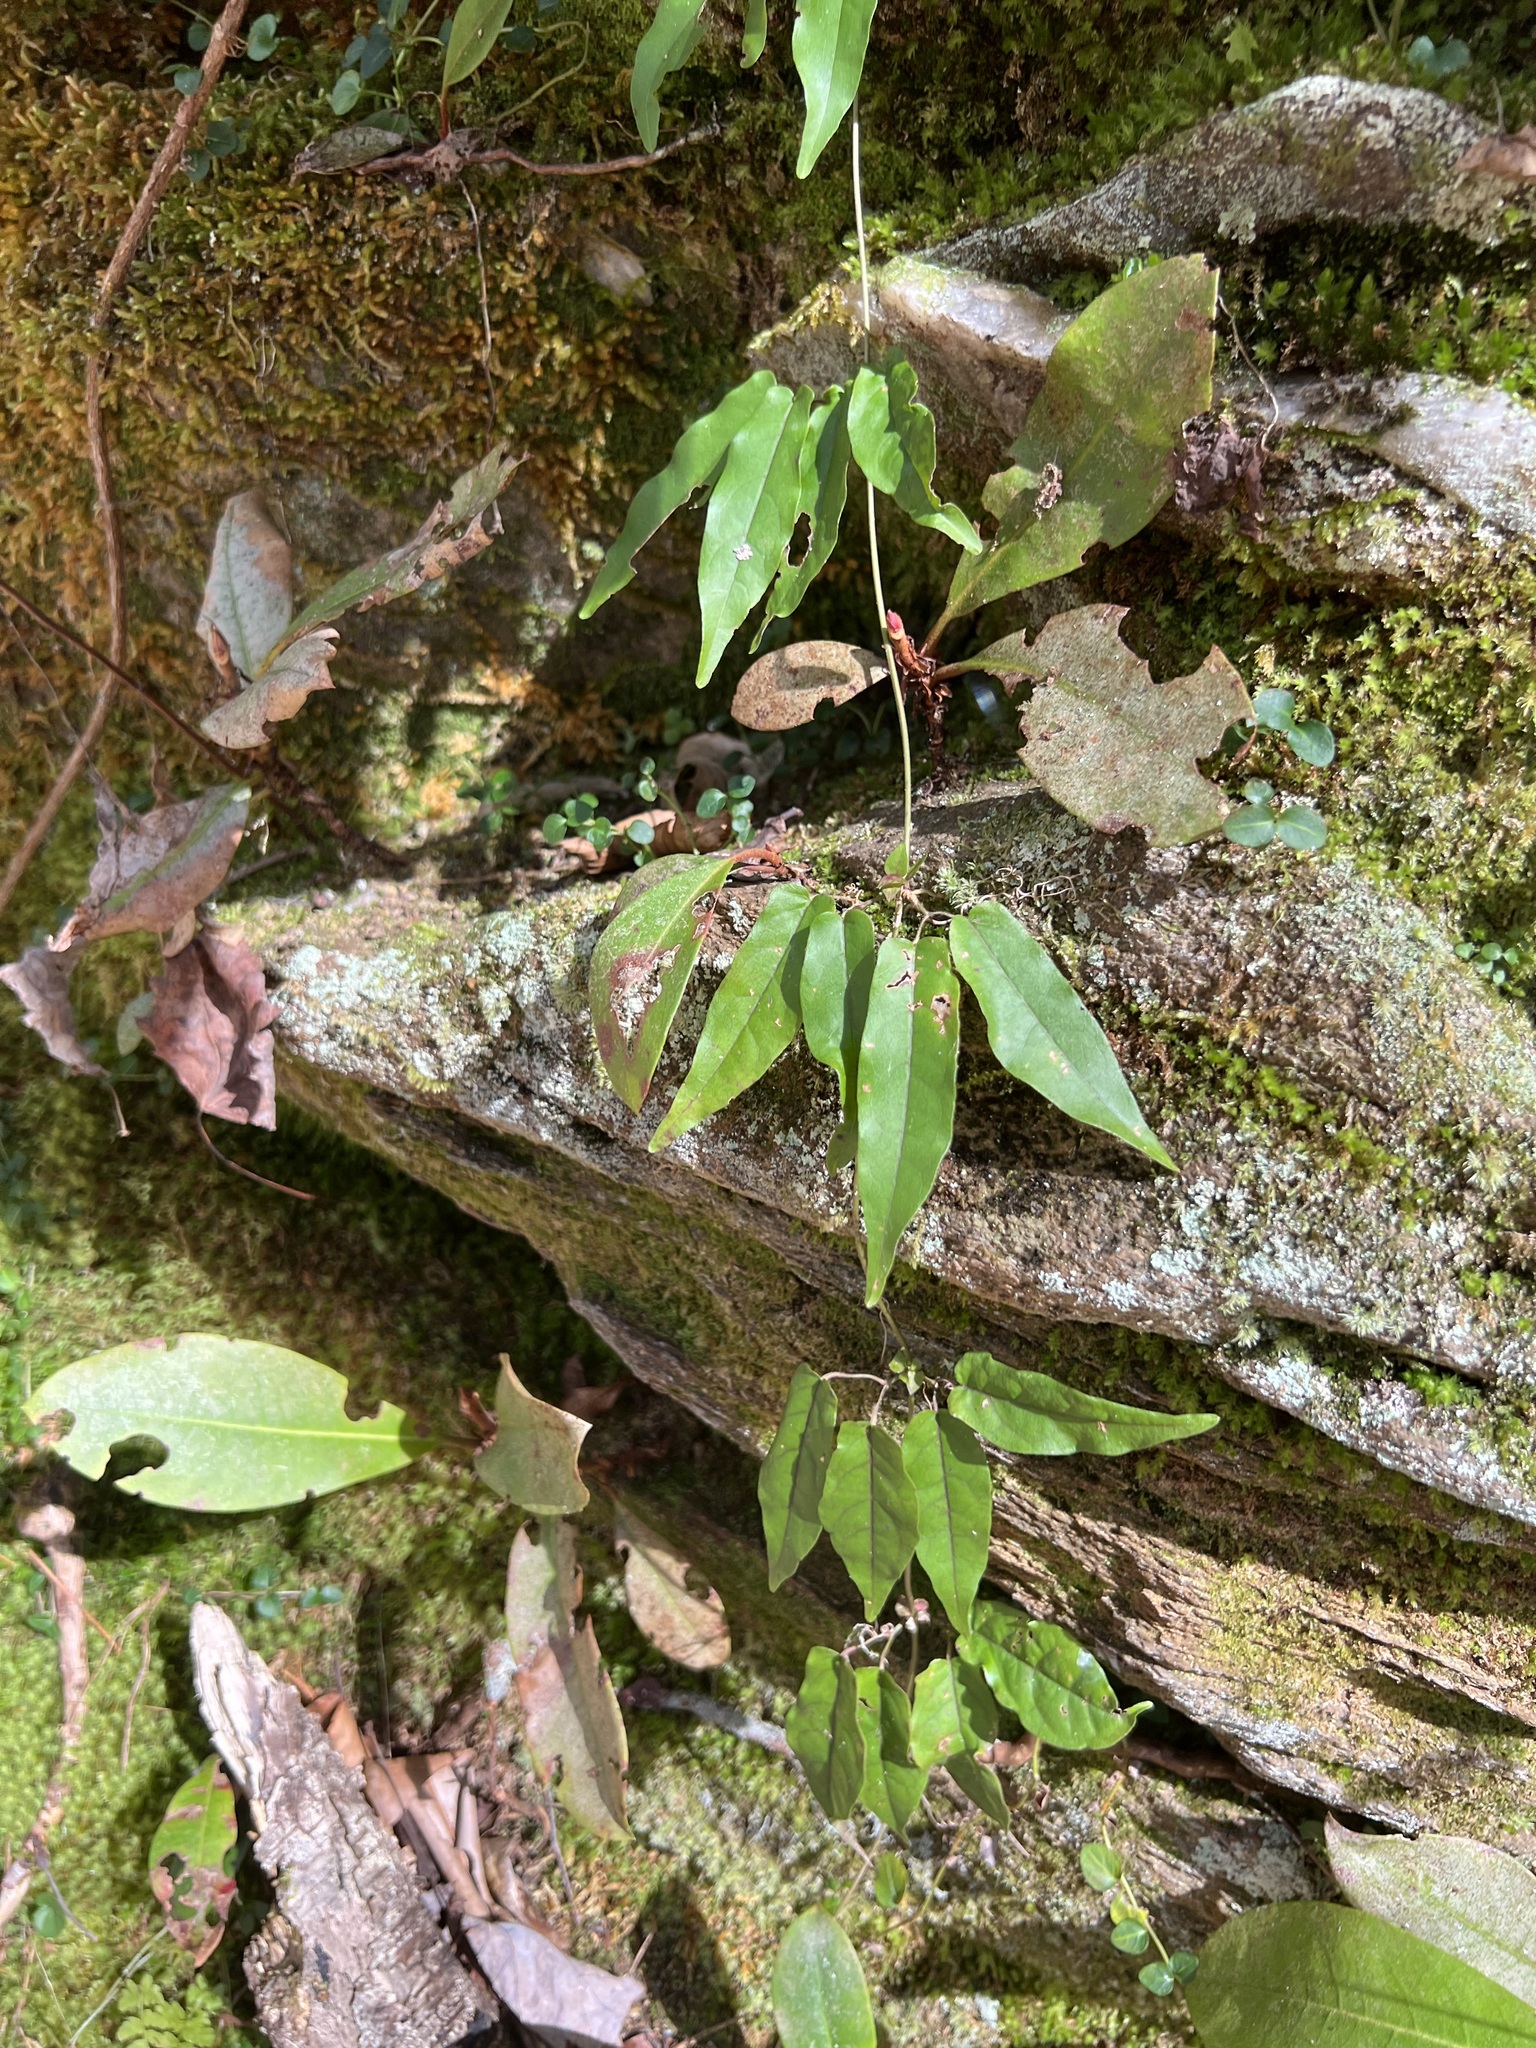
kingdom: Plantae
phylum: Tracheophyta
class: Magnoliopsida
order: Lamiales
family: Bignoniaceae
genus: Bignonia
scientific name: Bignonia capreolata
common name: Crossvine
